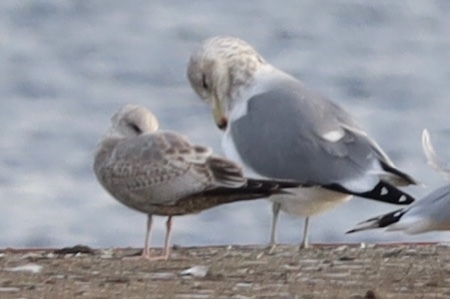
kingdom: Animalia
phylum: Chordata
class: Aves
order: Charadriiformes
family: Laridae
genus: Larus
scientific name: Larus brachyrhynchus
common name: Short-billed gull
